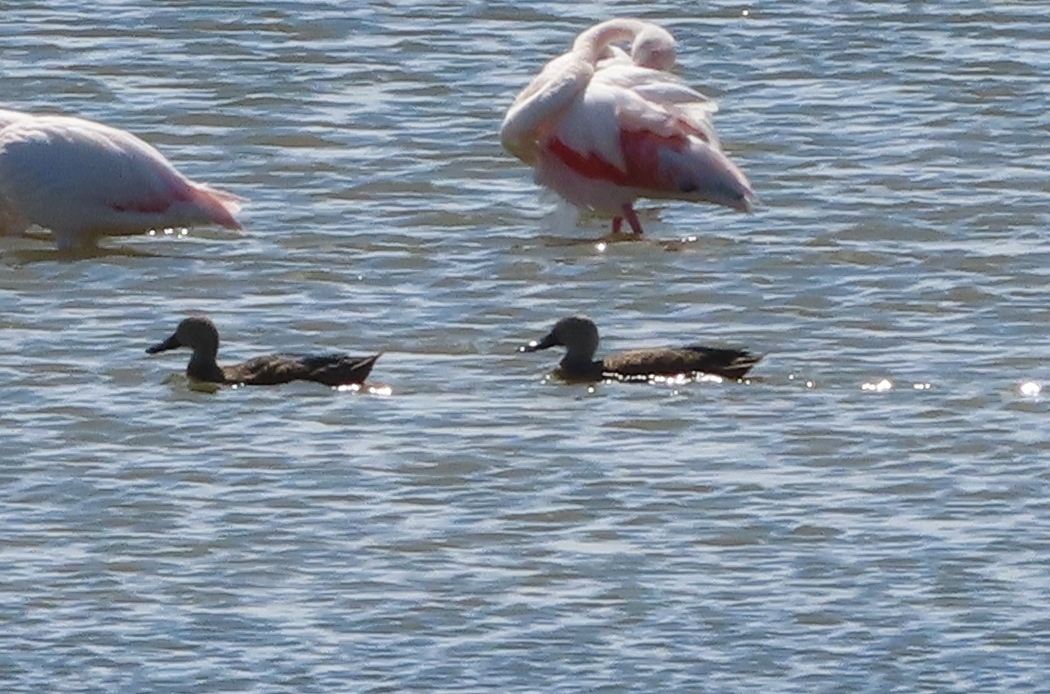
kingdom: Animalia
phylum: Chordata
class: Aves
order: Anseriformes
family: Anatidae
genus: Spatula
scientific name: Spatula smithii
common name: Cape shoveler
